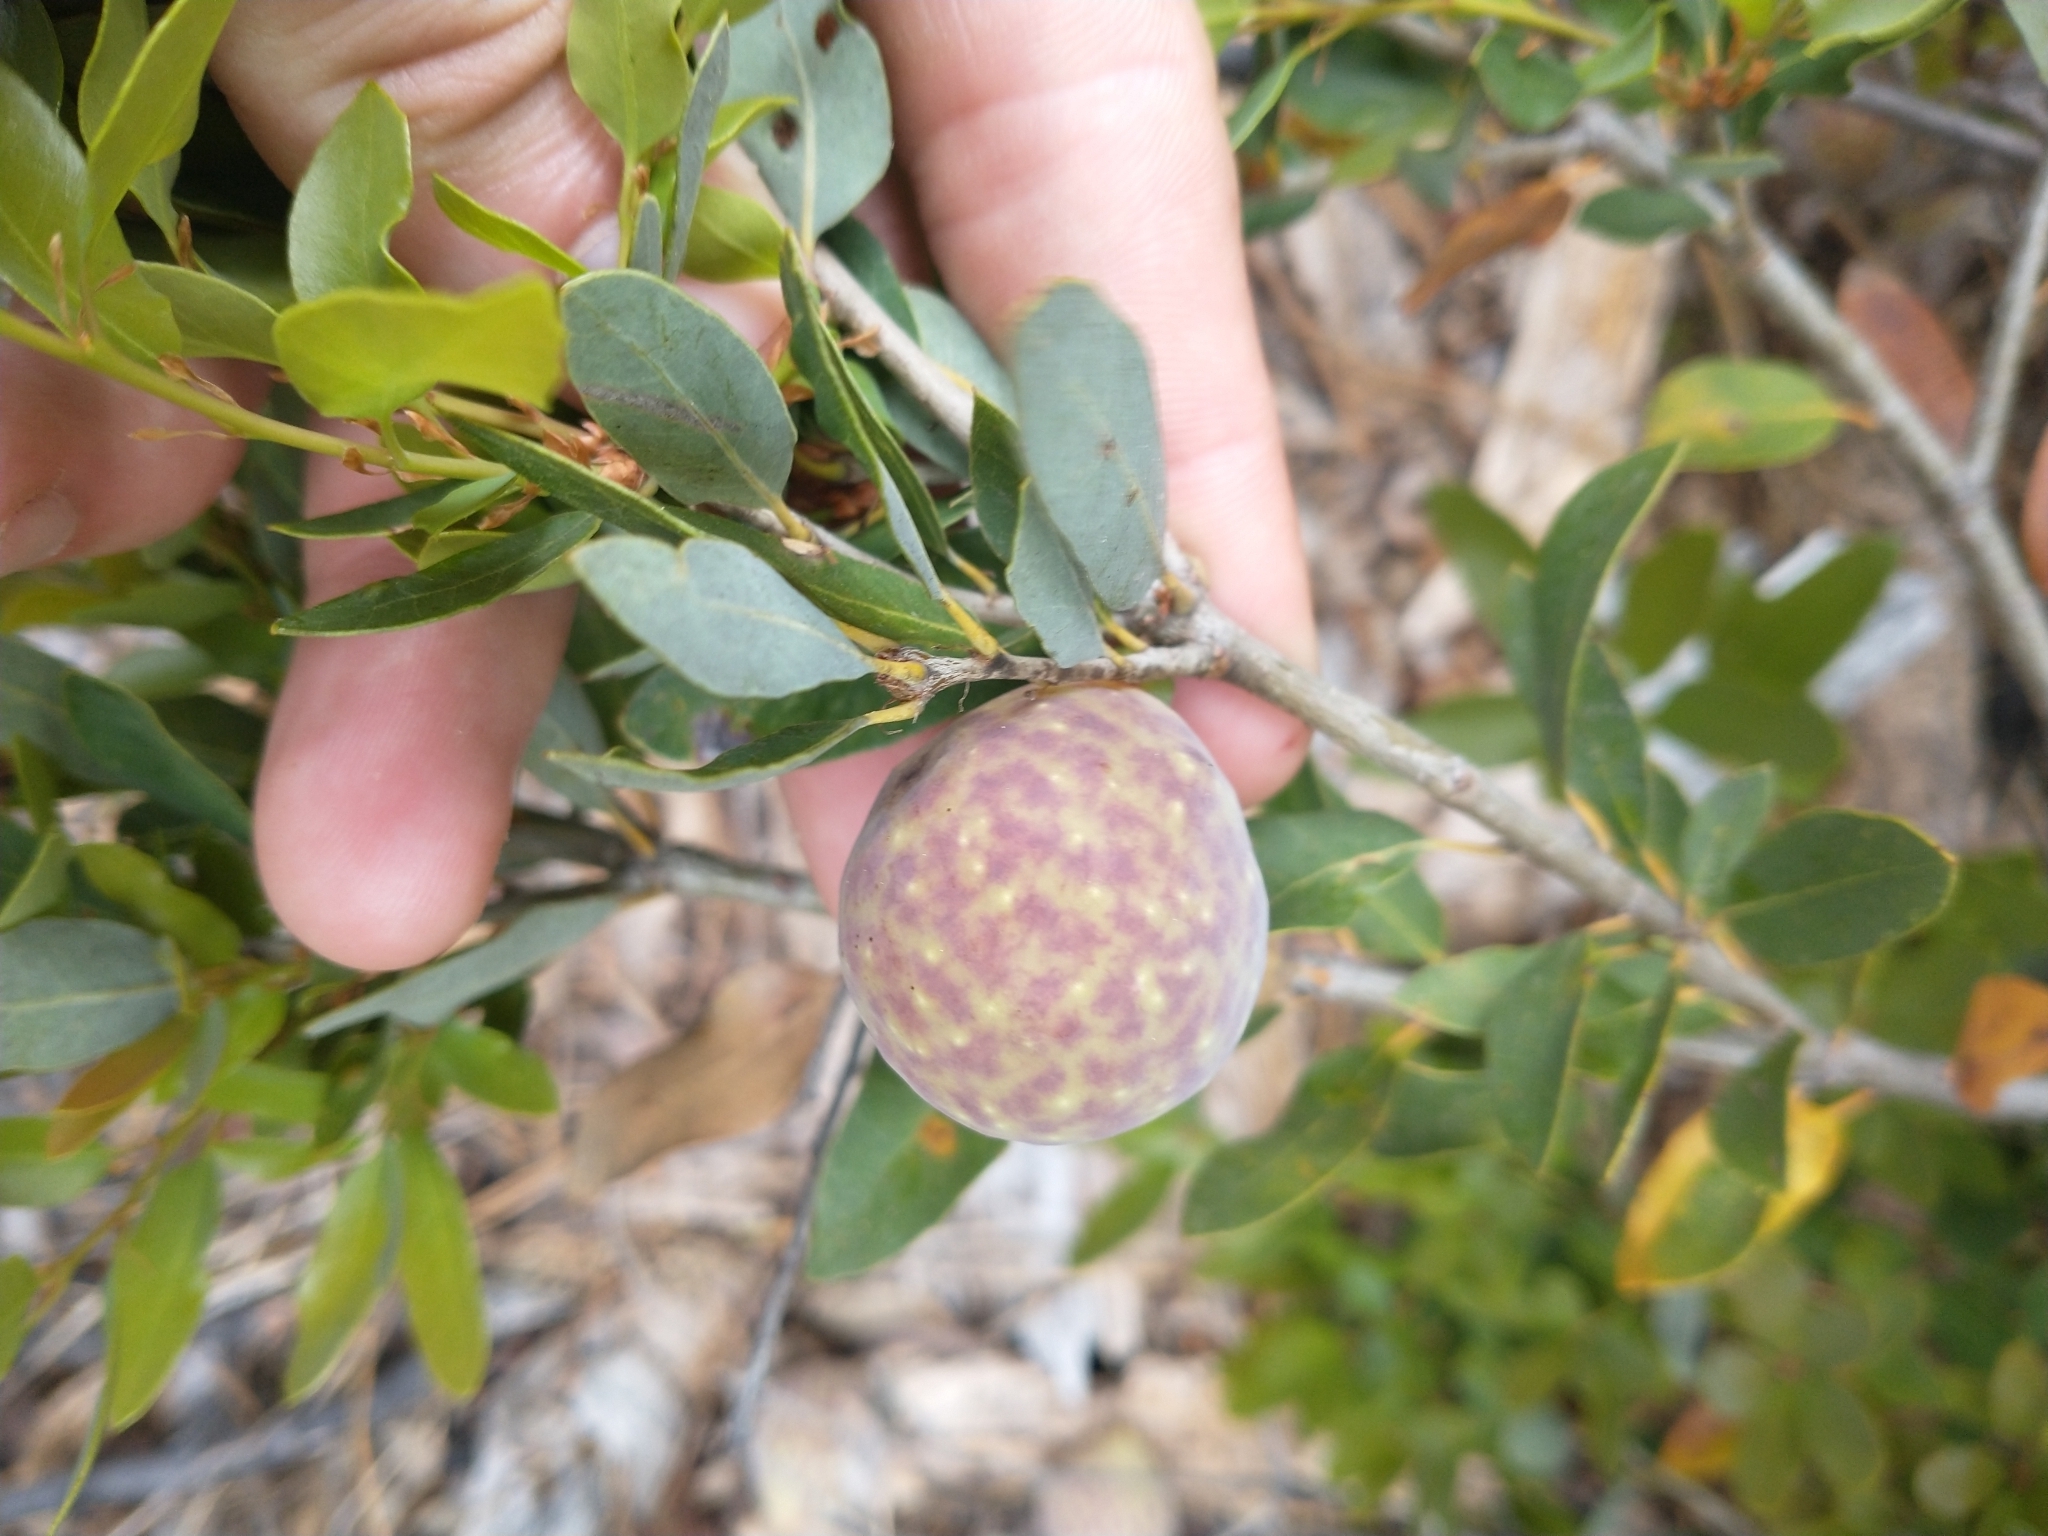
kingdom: Plantae
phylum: Tracheophyta
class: Magnoliopsida
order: Fagales
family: Fagaceae
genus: Quercus
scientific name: Quercus vacciniifolia
